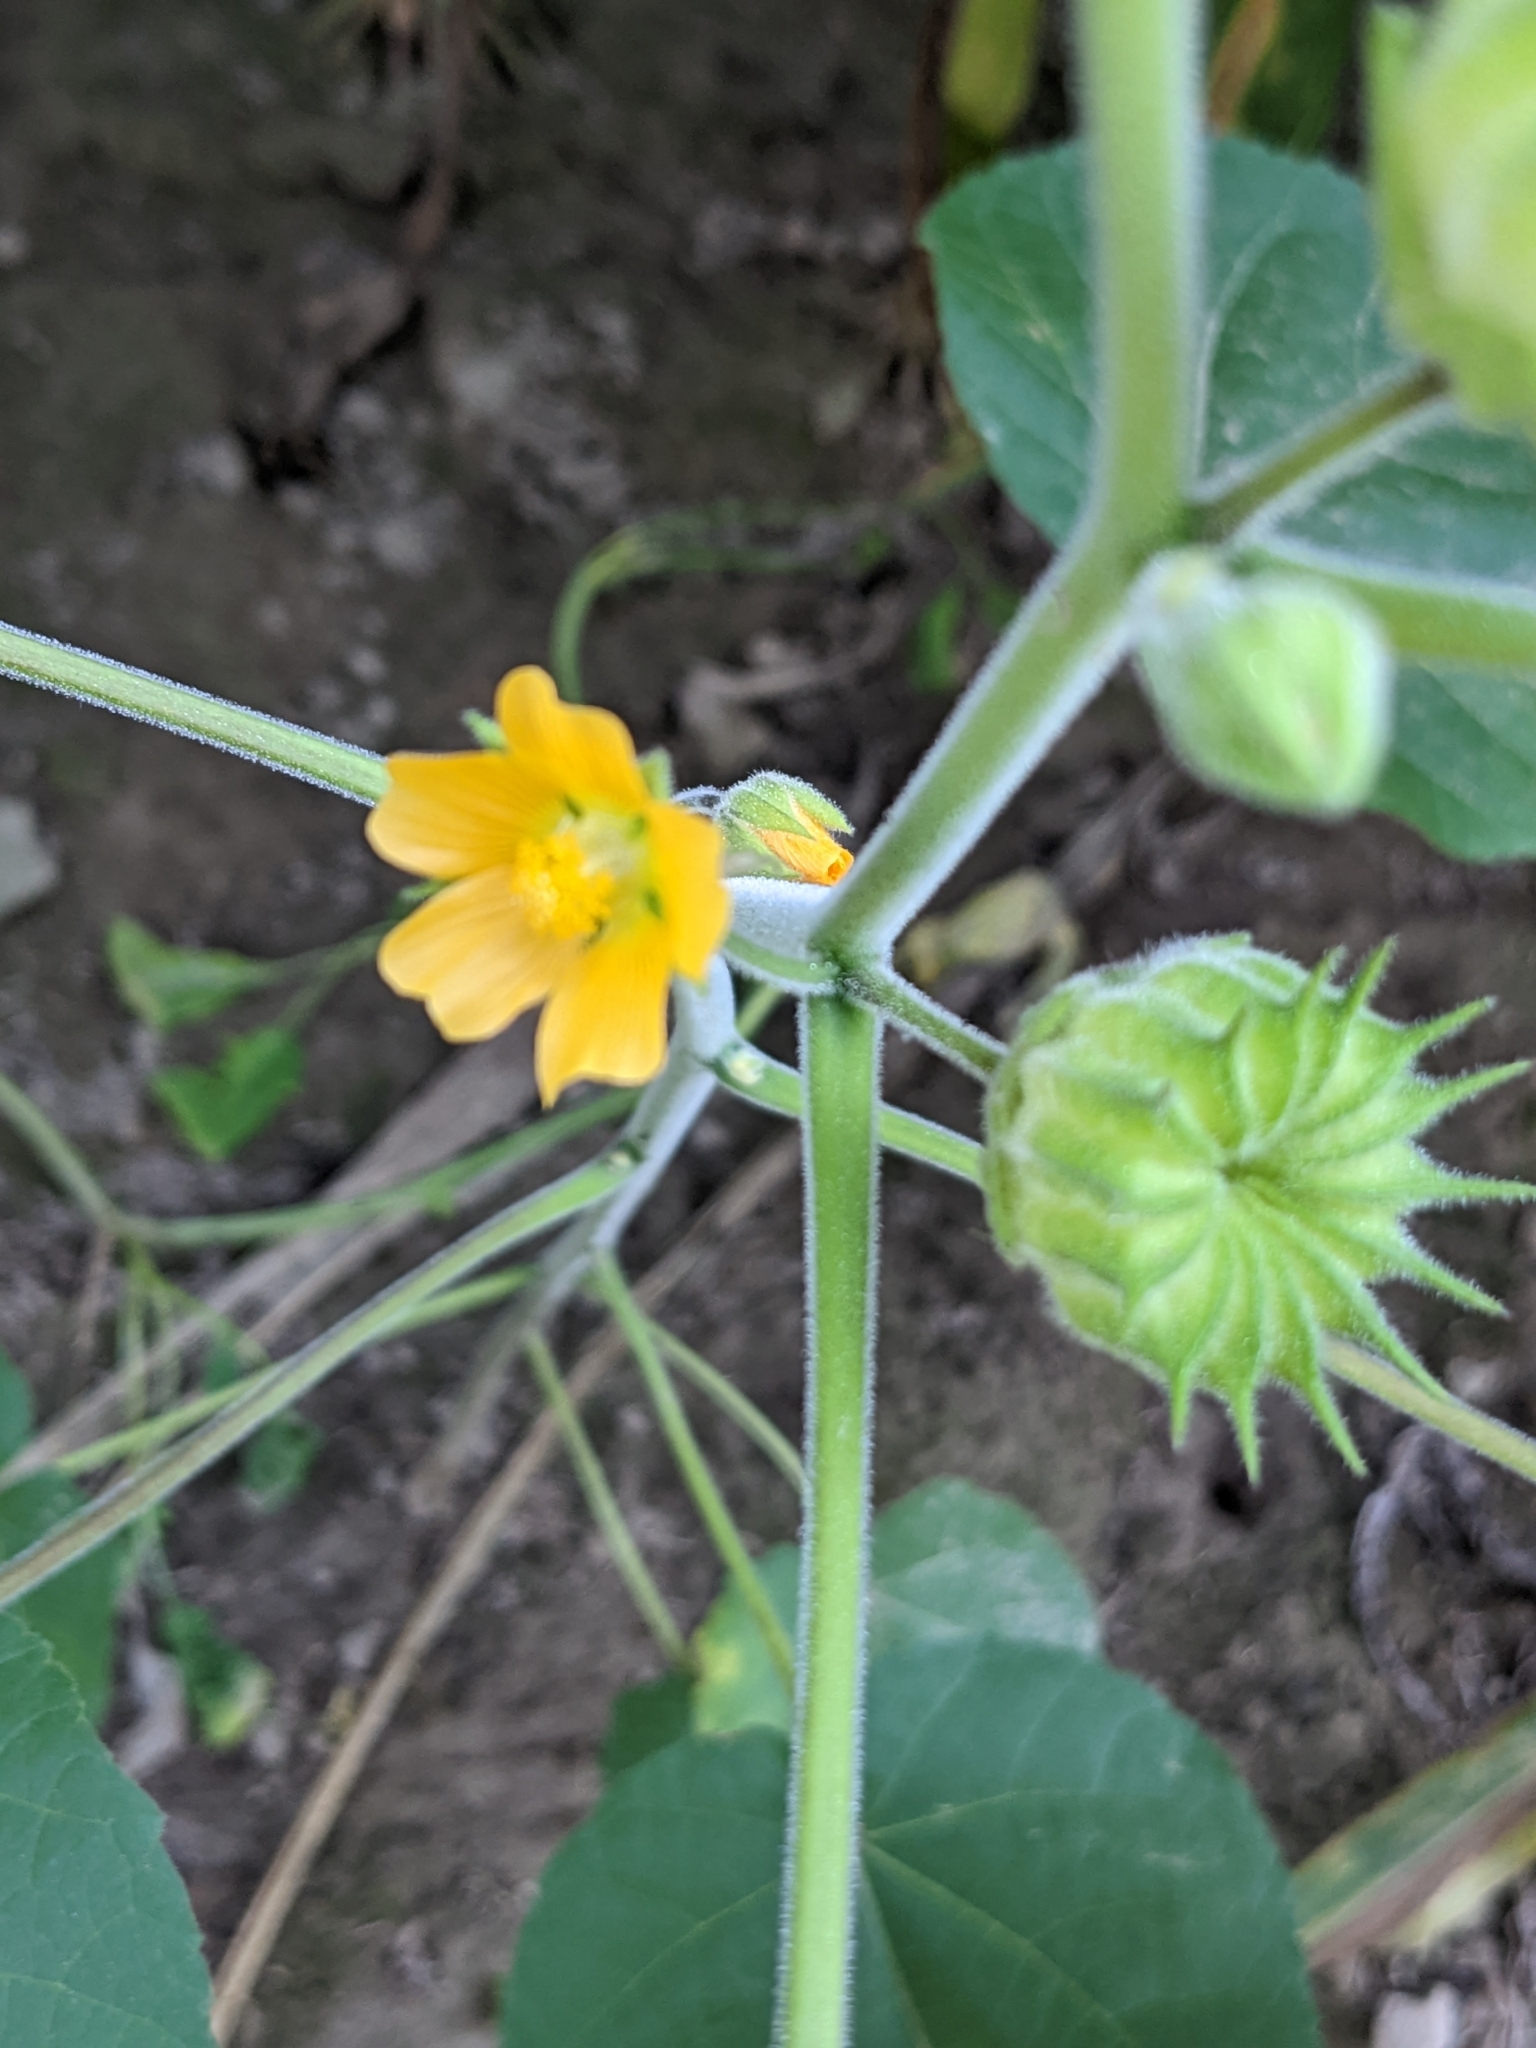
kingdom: Plantae
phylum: Tracheophyta
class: Magnoliopsida
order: Malvales
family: Malvaceae
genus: Abutilon
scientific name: Abutilon theophrasti
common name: Velvetleaf
